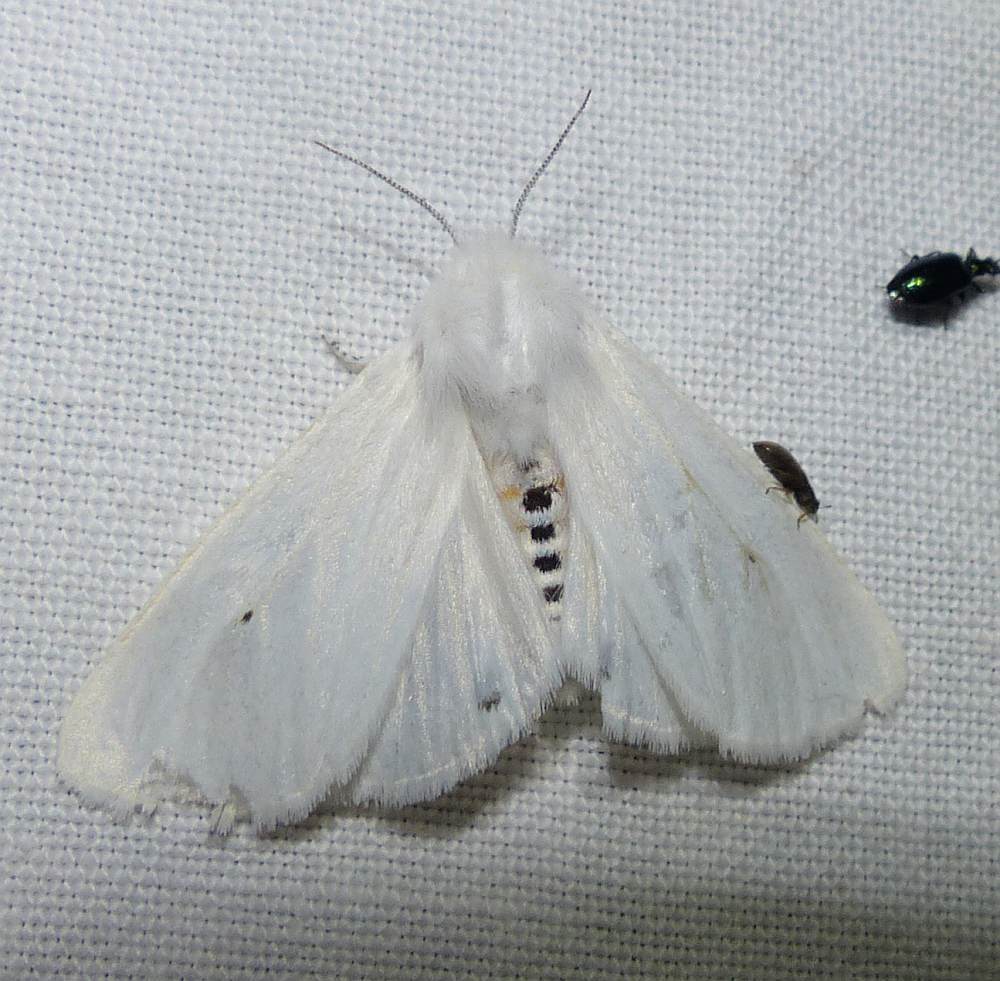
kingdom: Animalia
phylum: Arthropoda
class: Insecta
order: Lepidoptera
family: Erebidae
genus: Spilosoma
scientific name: Spilosoma virginica
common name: Virginia tiger moth
